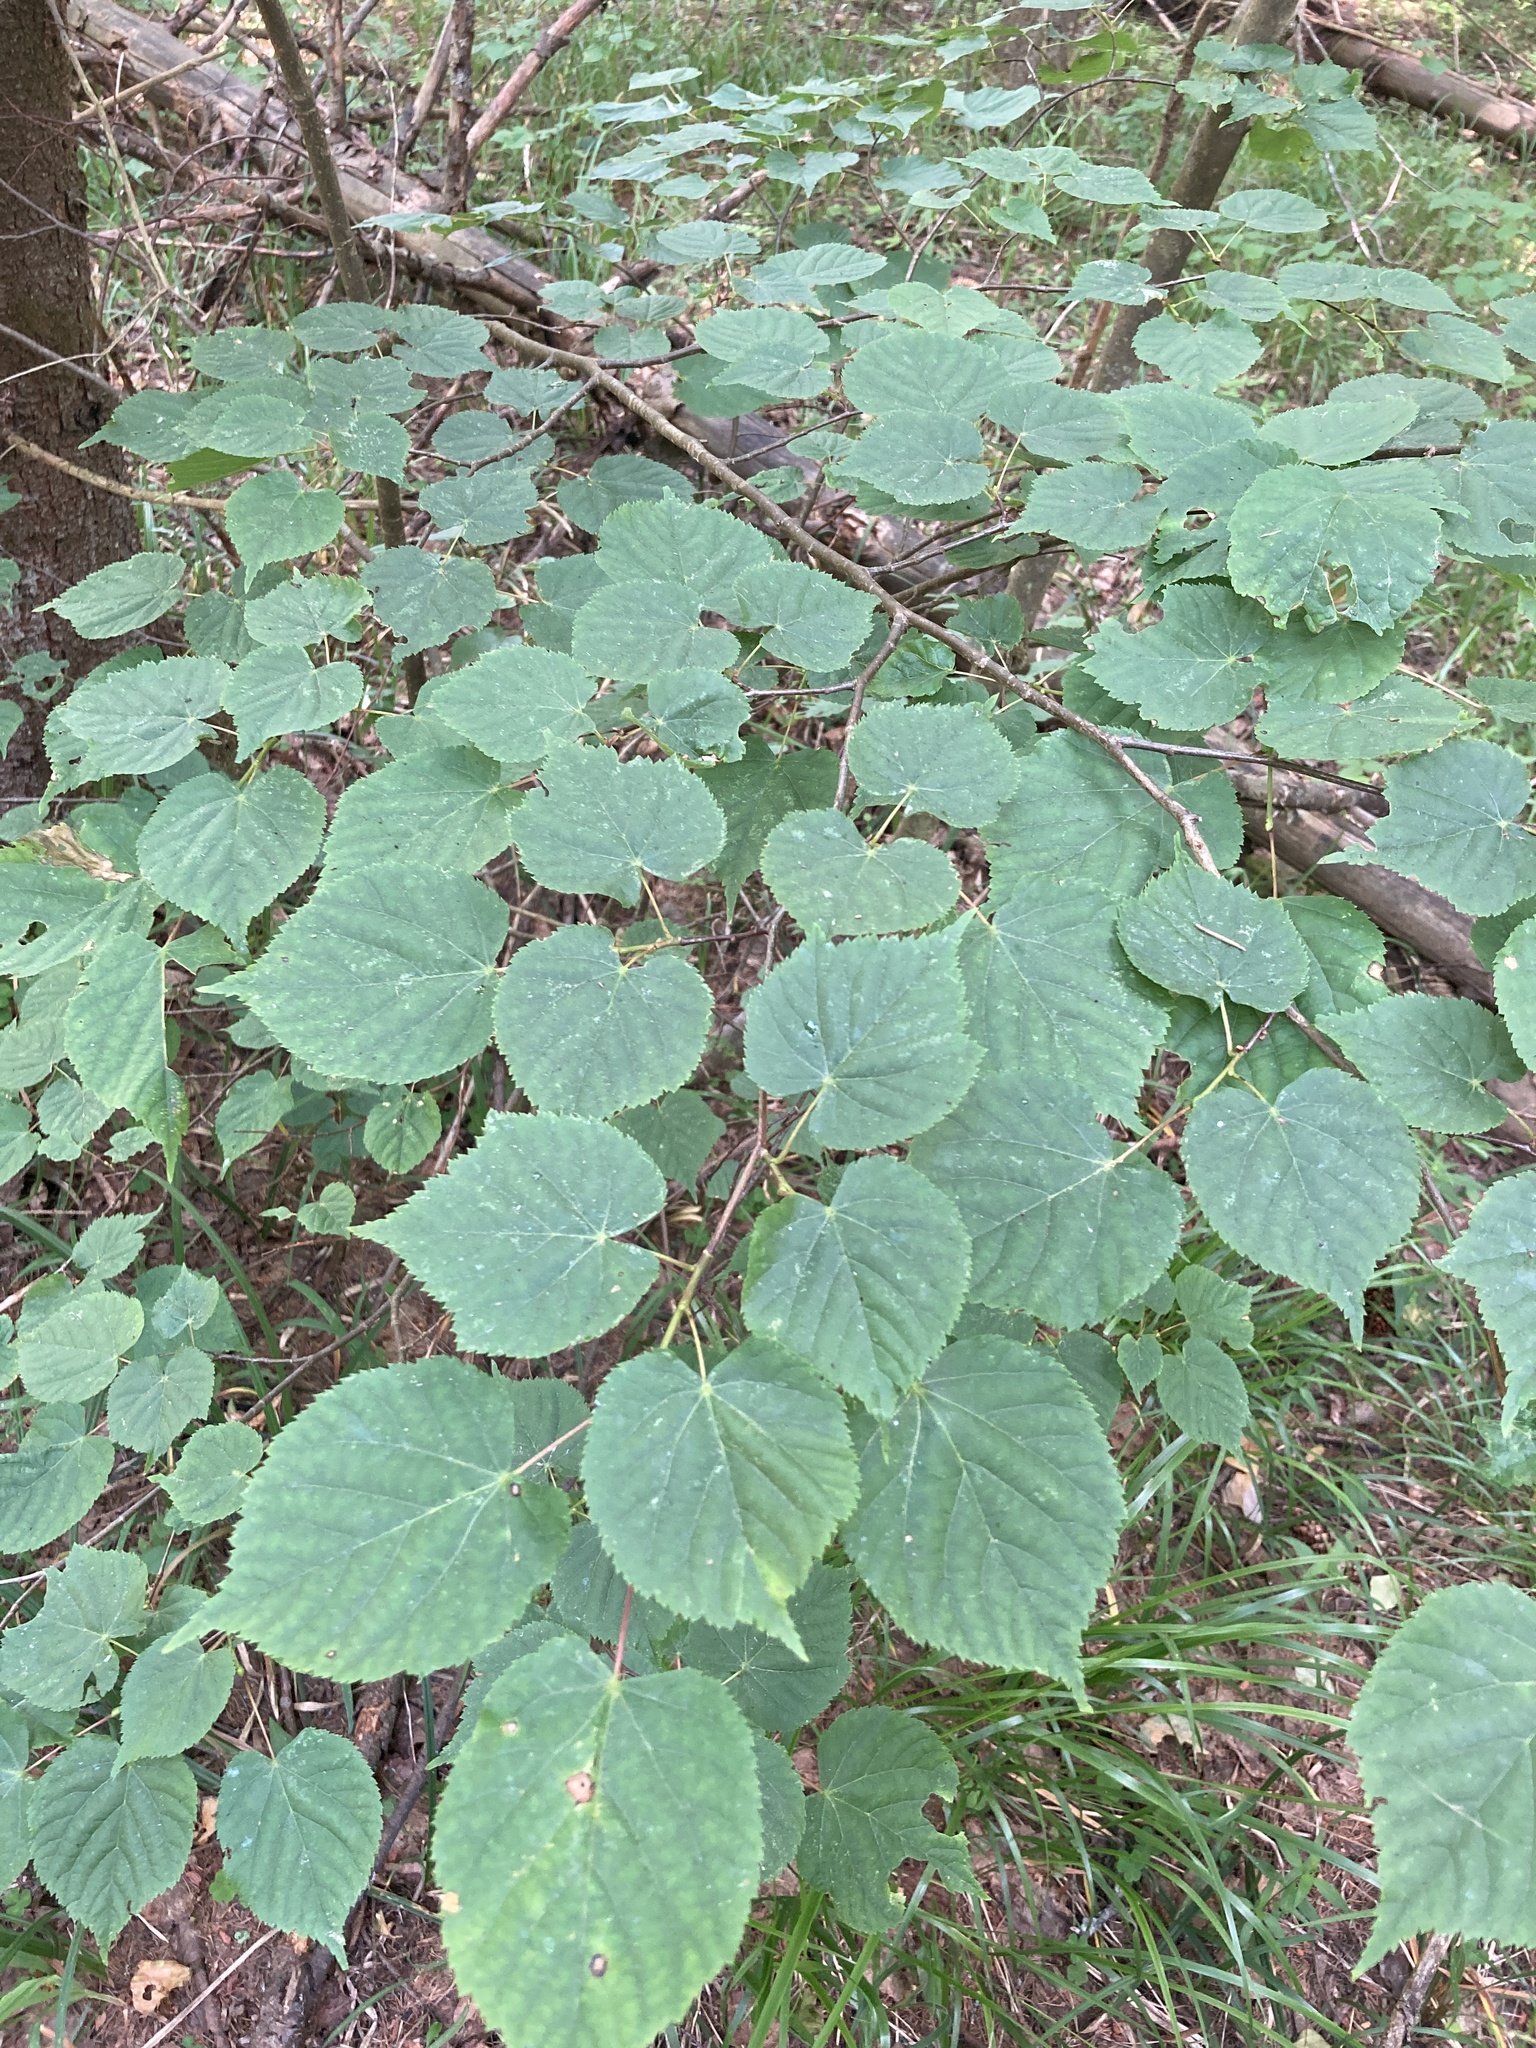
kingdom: Plantae
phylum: Tracheophyta
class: Magnoliopsida
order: Malvales
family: Malvaceae
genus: Tilia
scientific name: Tilia cordata
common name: Small-leaved lime
